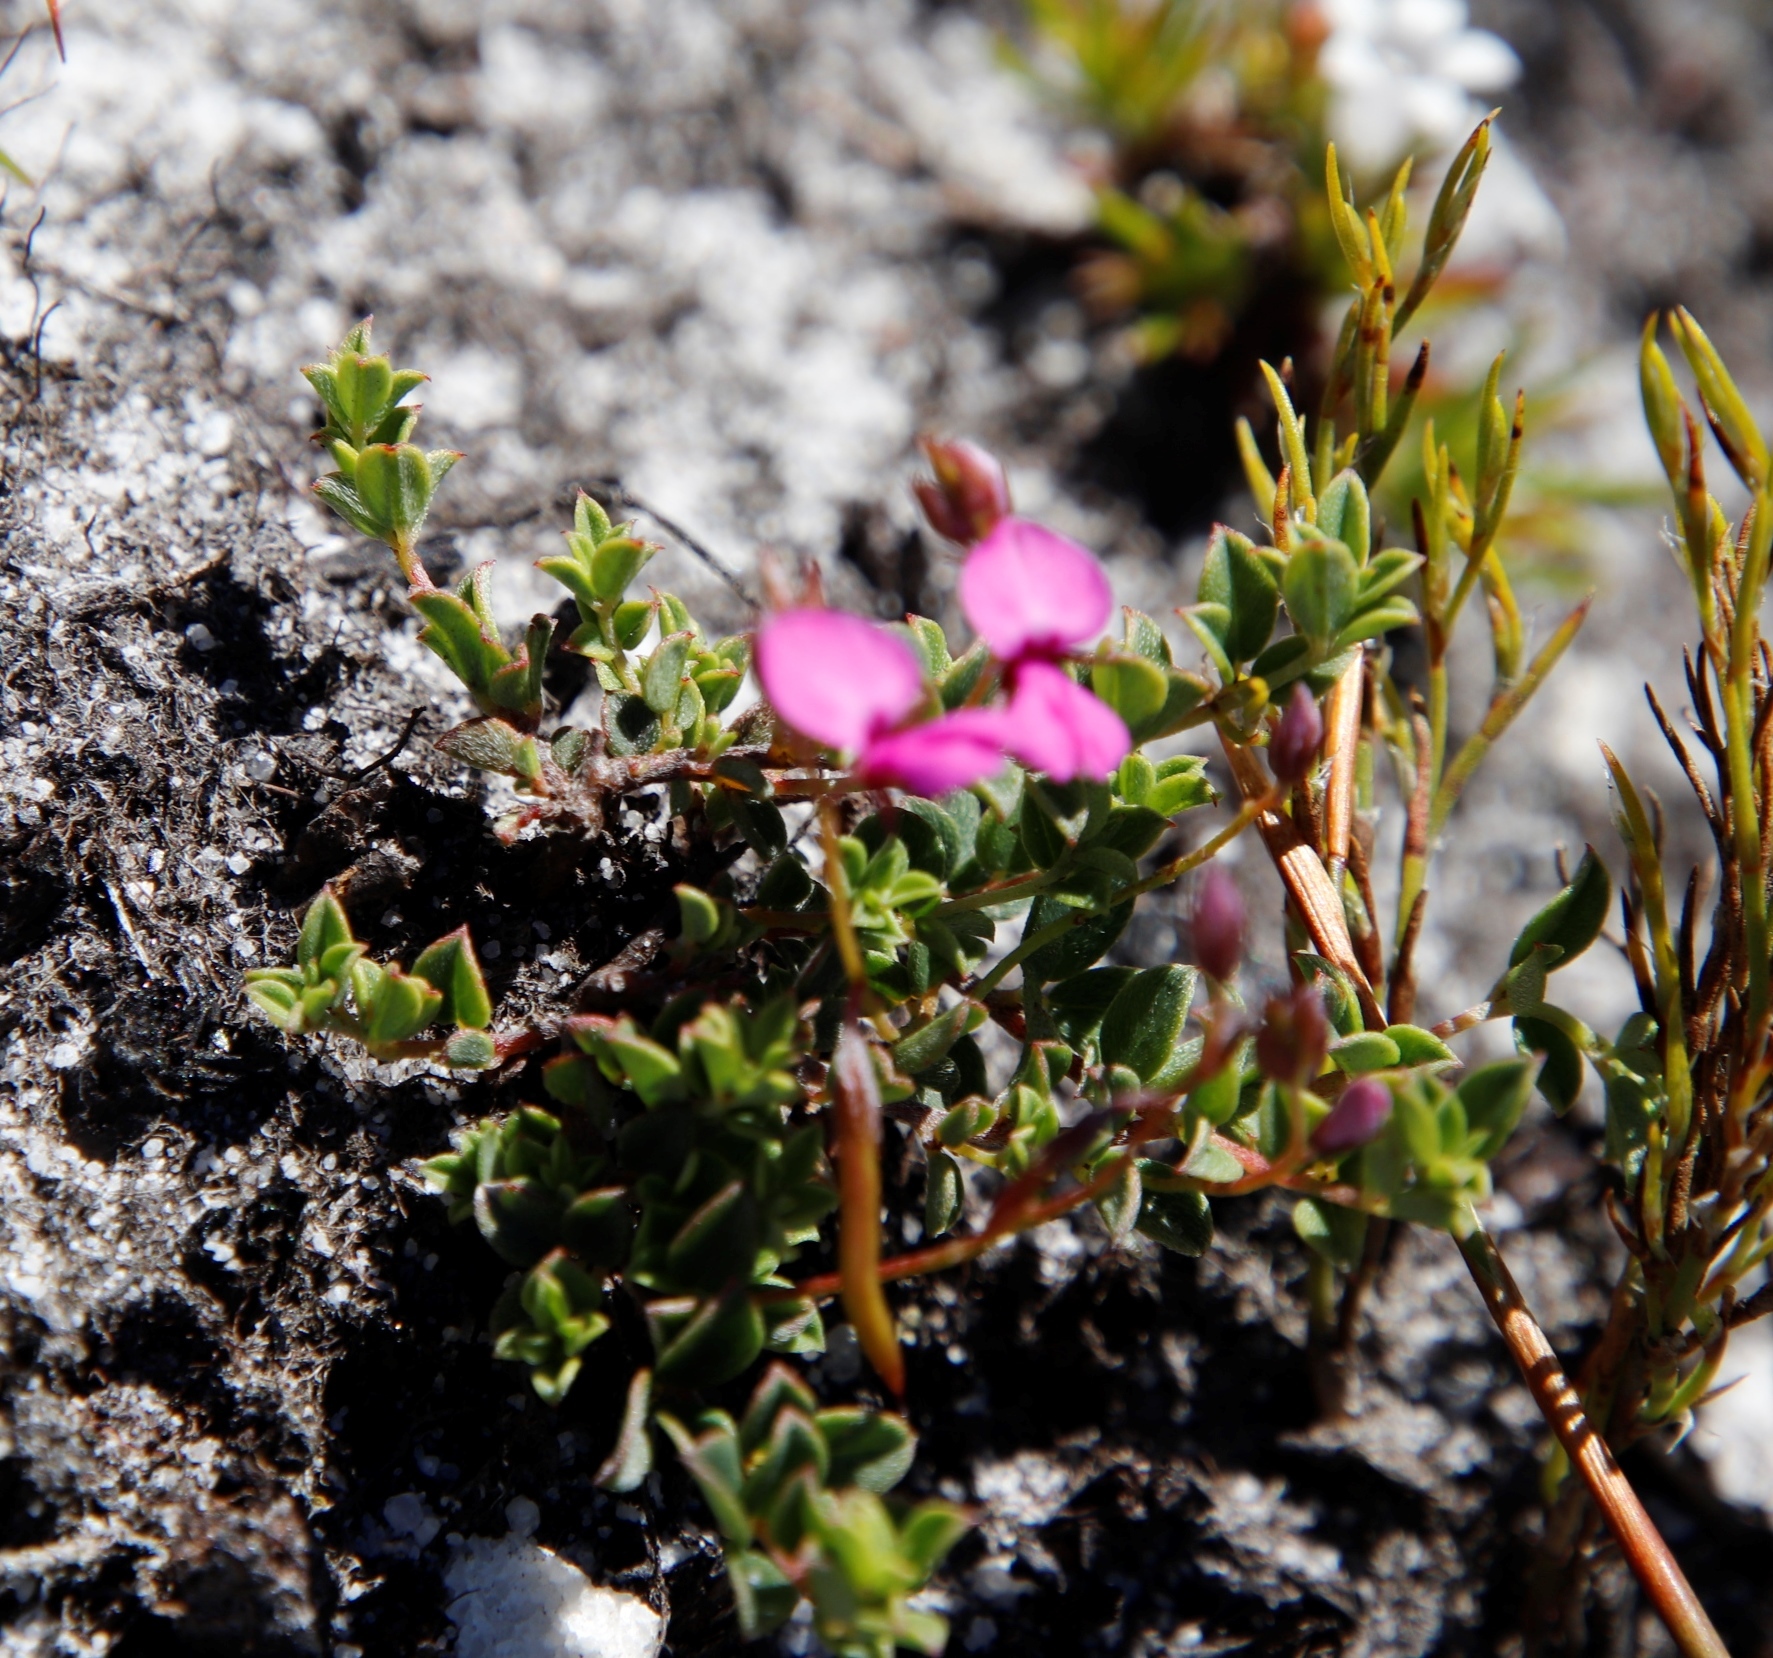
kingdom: Plantae
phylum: Tracheophyta
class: Magnoliopsida
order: Fabales
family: Fabaceae
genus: Indigofera
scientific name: Indigofera sarmentosa
